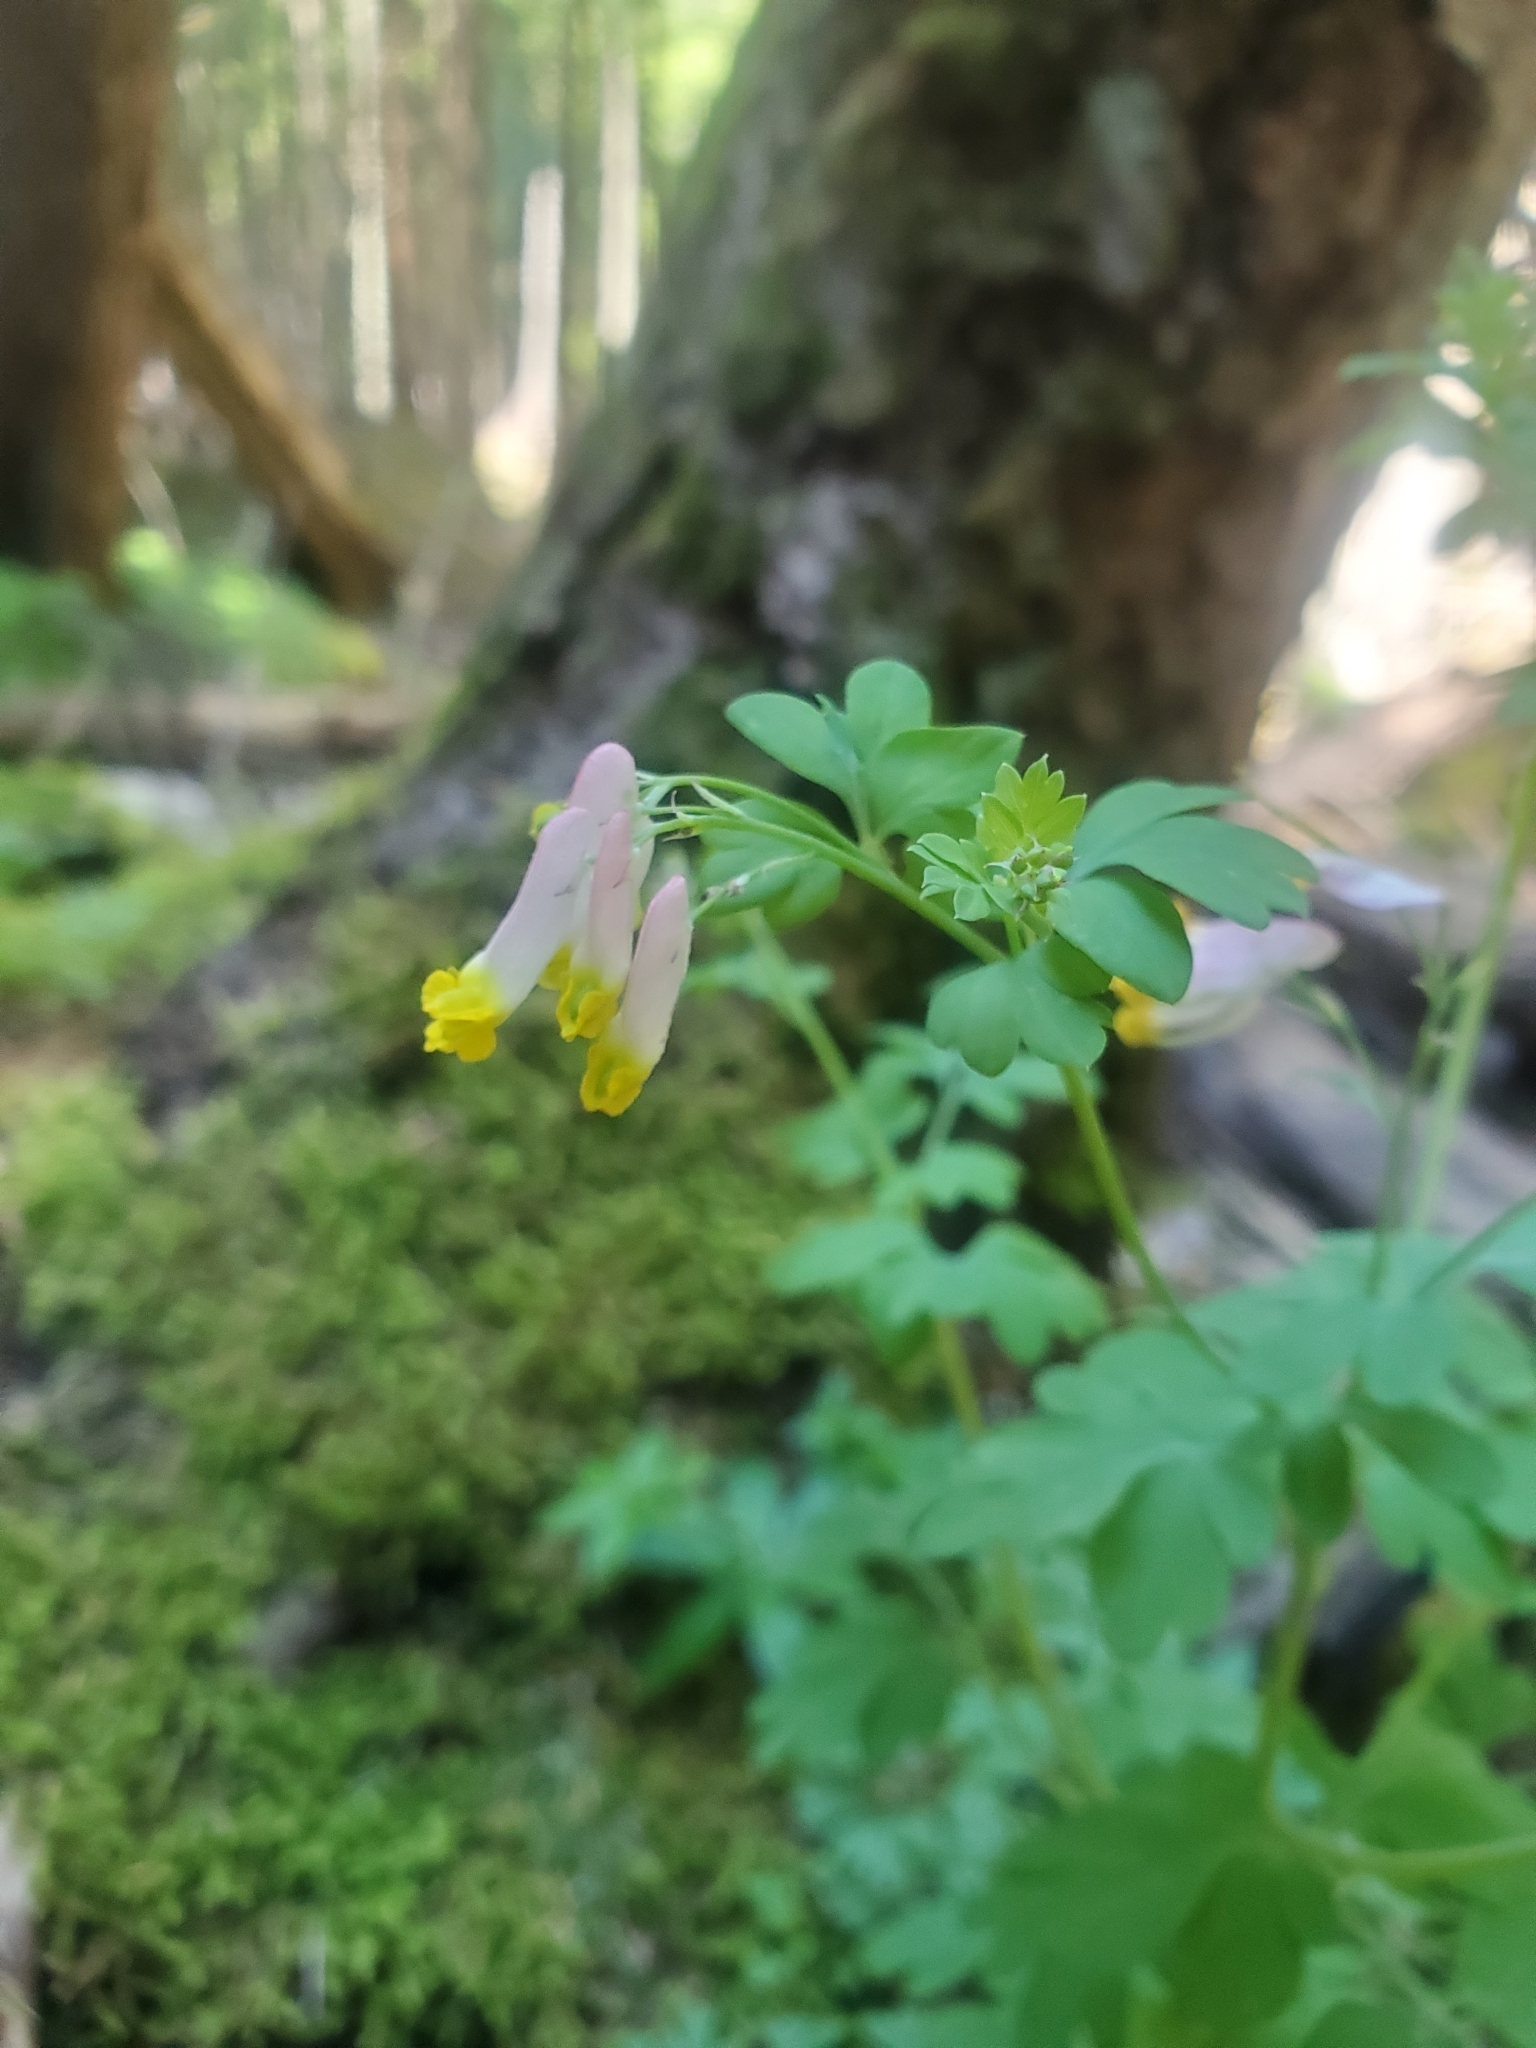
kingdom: Plantae
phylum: Tracheophyta
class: Magnoliopsida
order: Ranunculales
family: Papaveraceae
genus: Capnoides
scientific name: Capnoides sempervirens
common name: Rock harlequin
